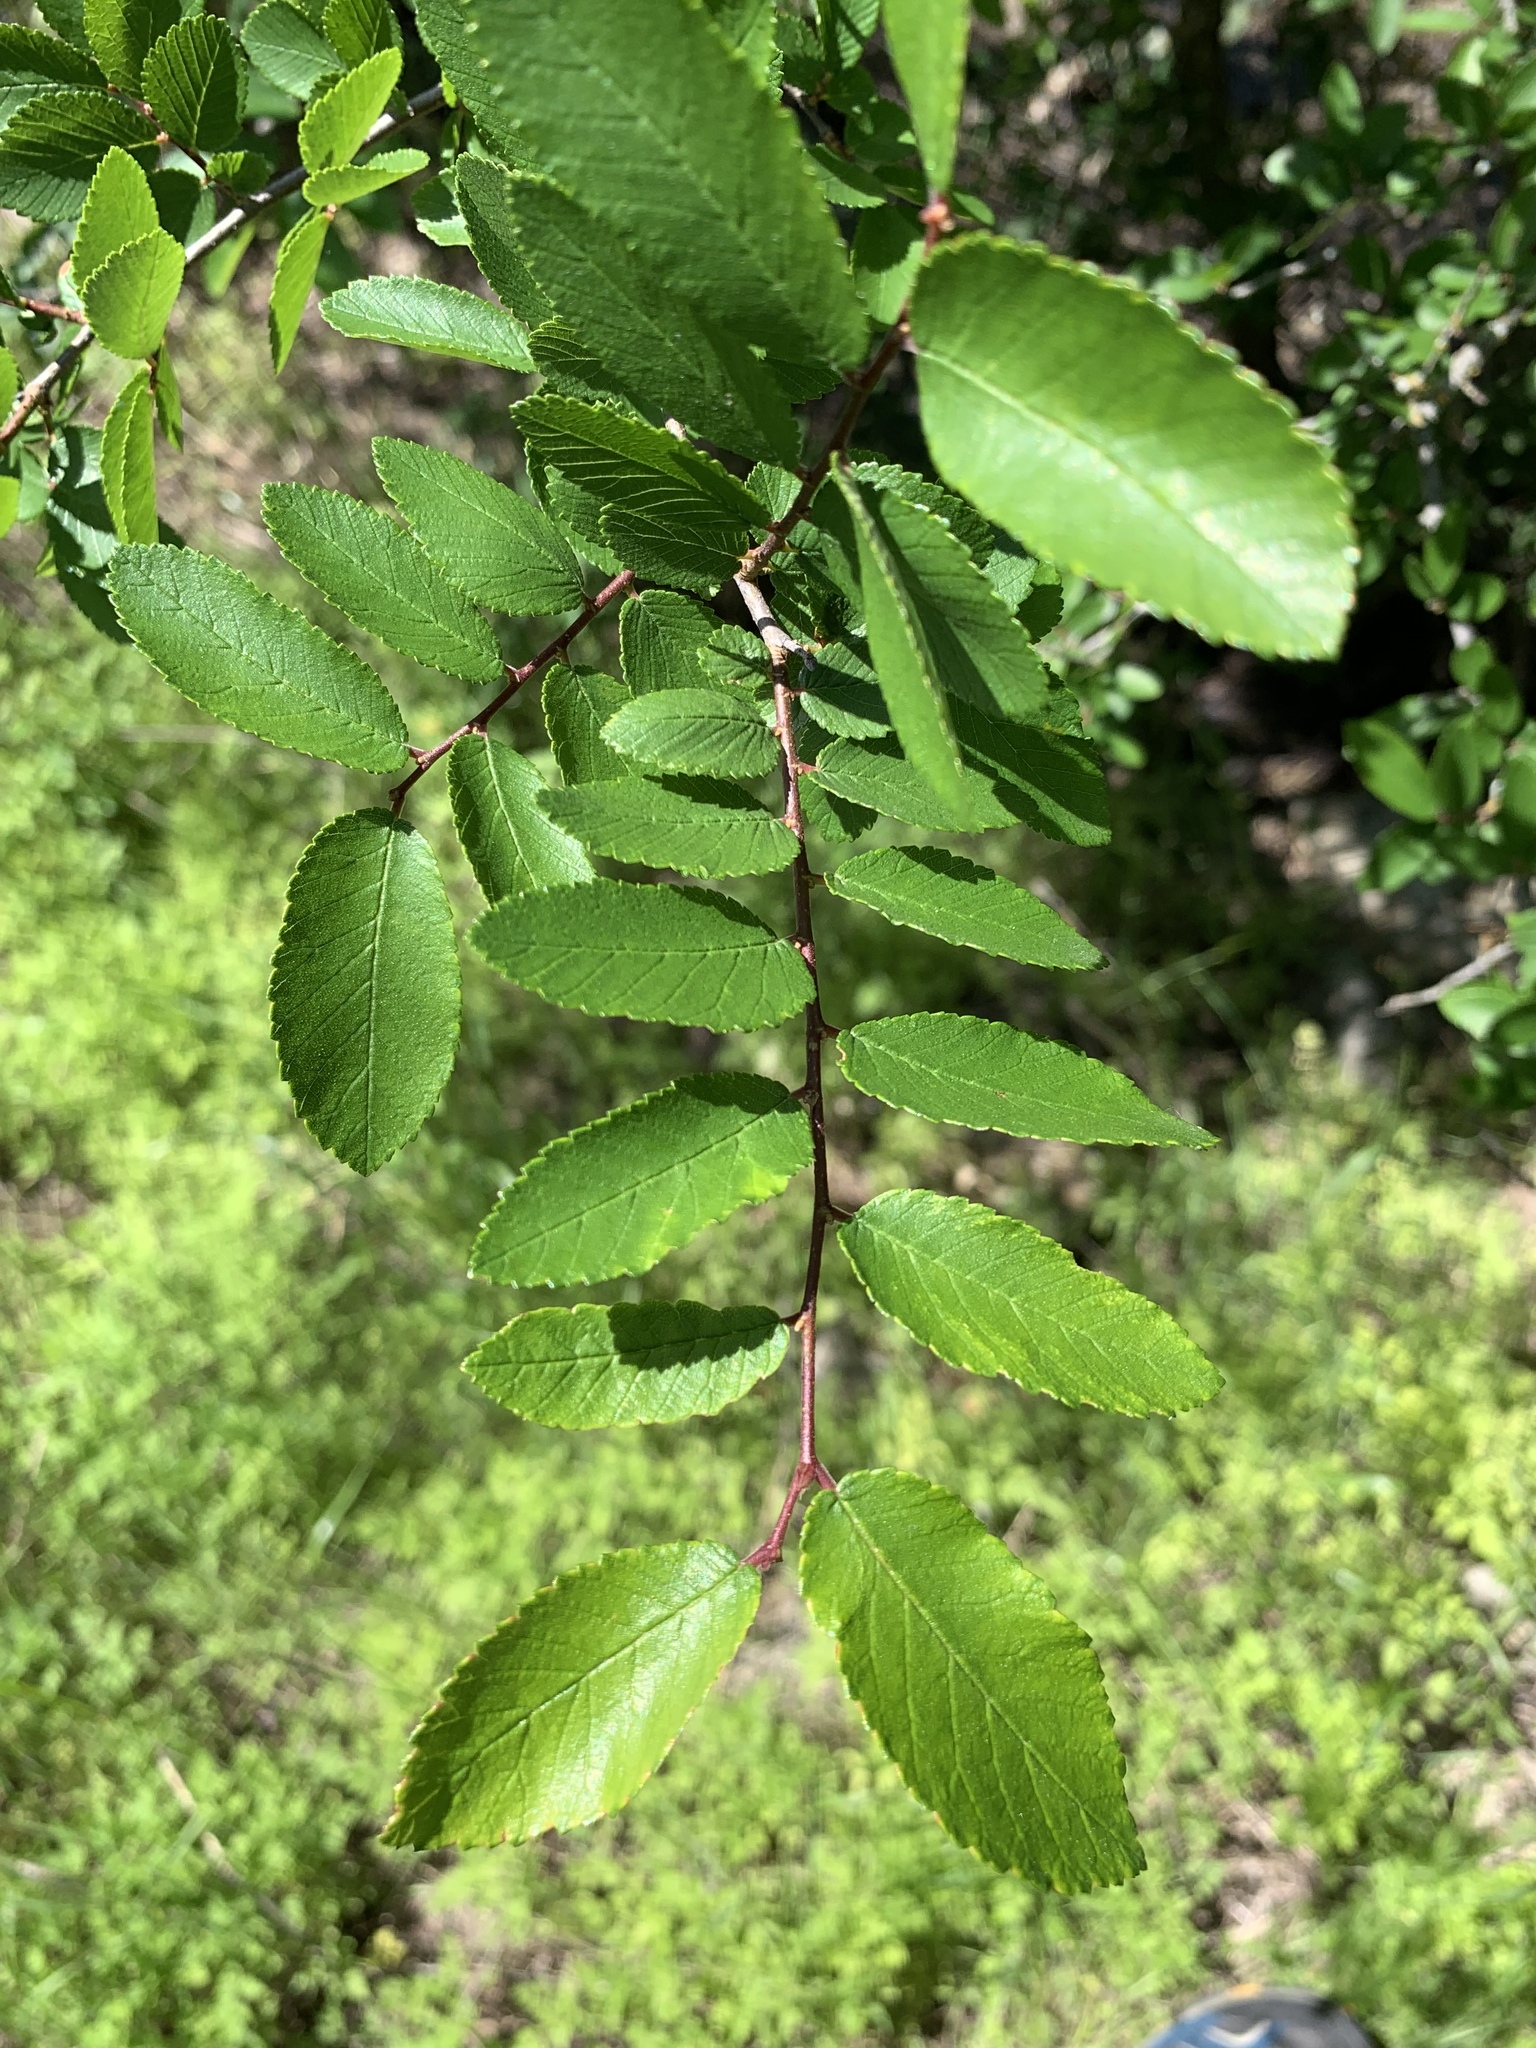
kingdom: Plantae
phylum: Tracheophyta
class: Magnoliopsida
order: Rosales
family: Ulmaceae
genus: Ulmus
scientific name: Ulmus crassifolia
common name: Basket elm
